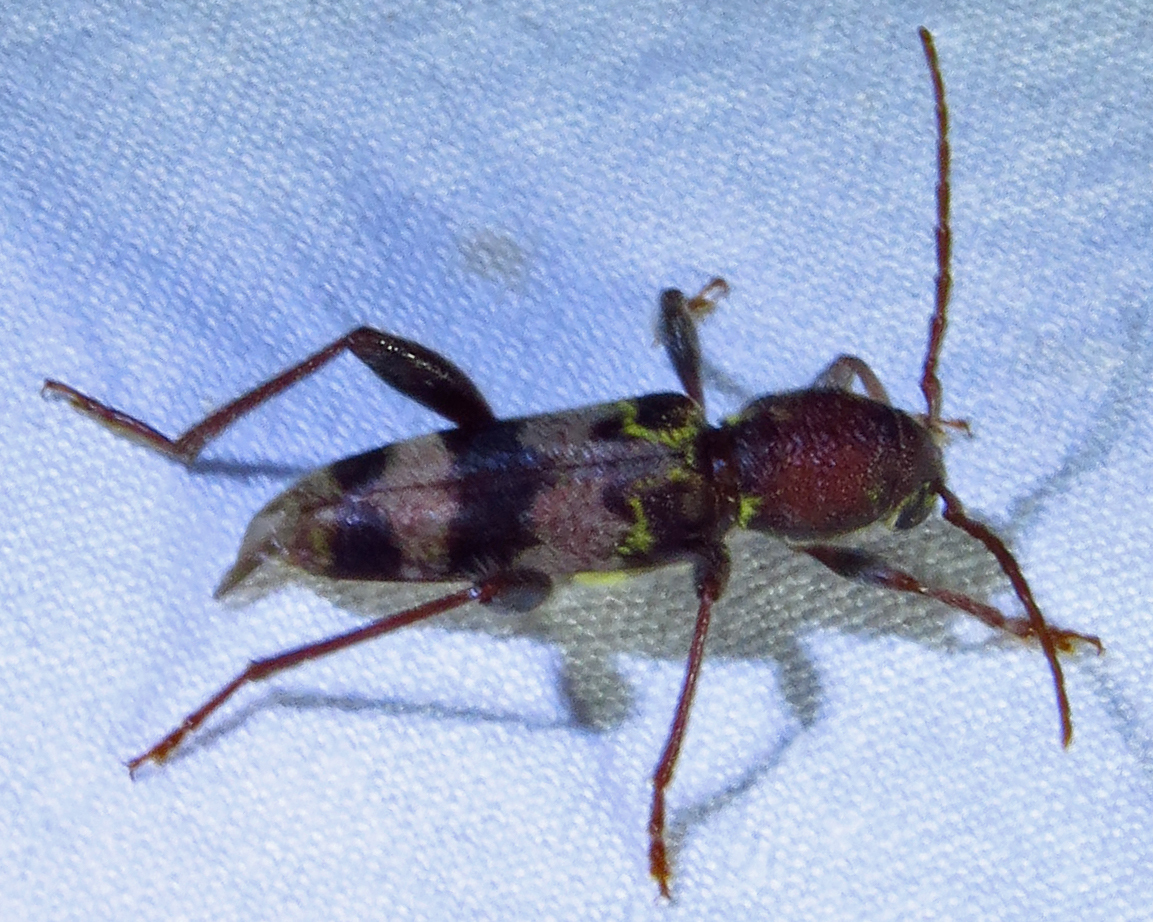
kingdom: Animalia
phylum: Arthropoda
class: Insecta
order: Coleoptera
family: Cerambycidae
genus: Xylotrechus
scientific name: Xylotrechus colonus
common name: Long-horned beetle
